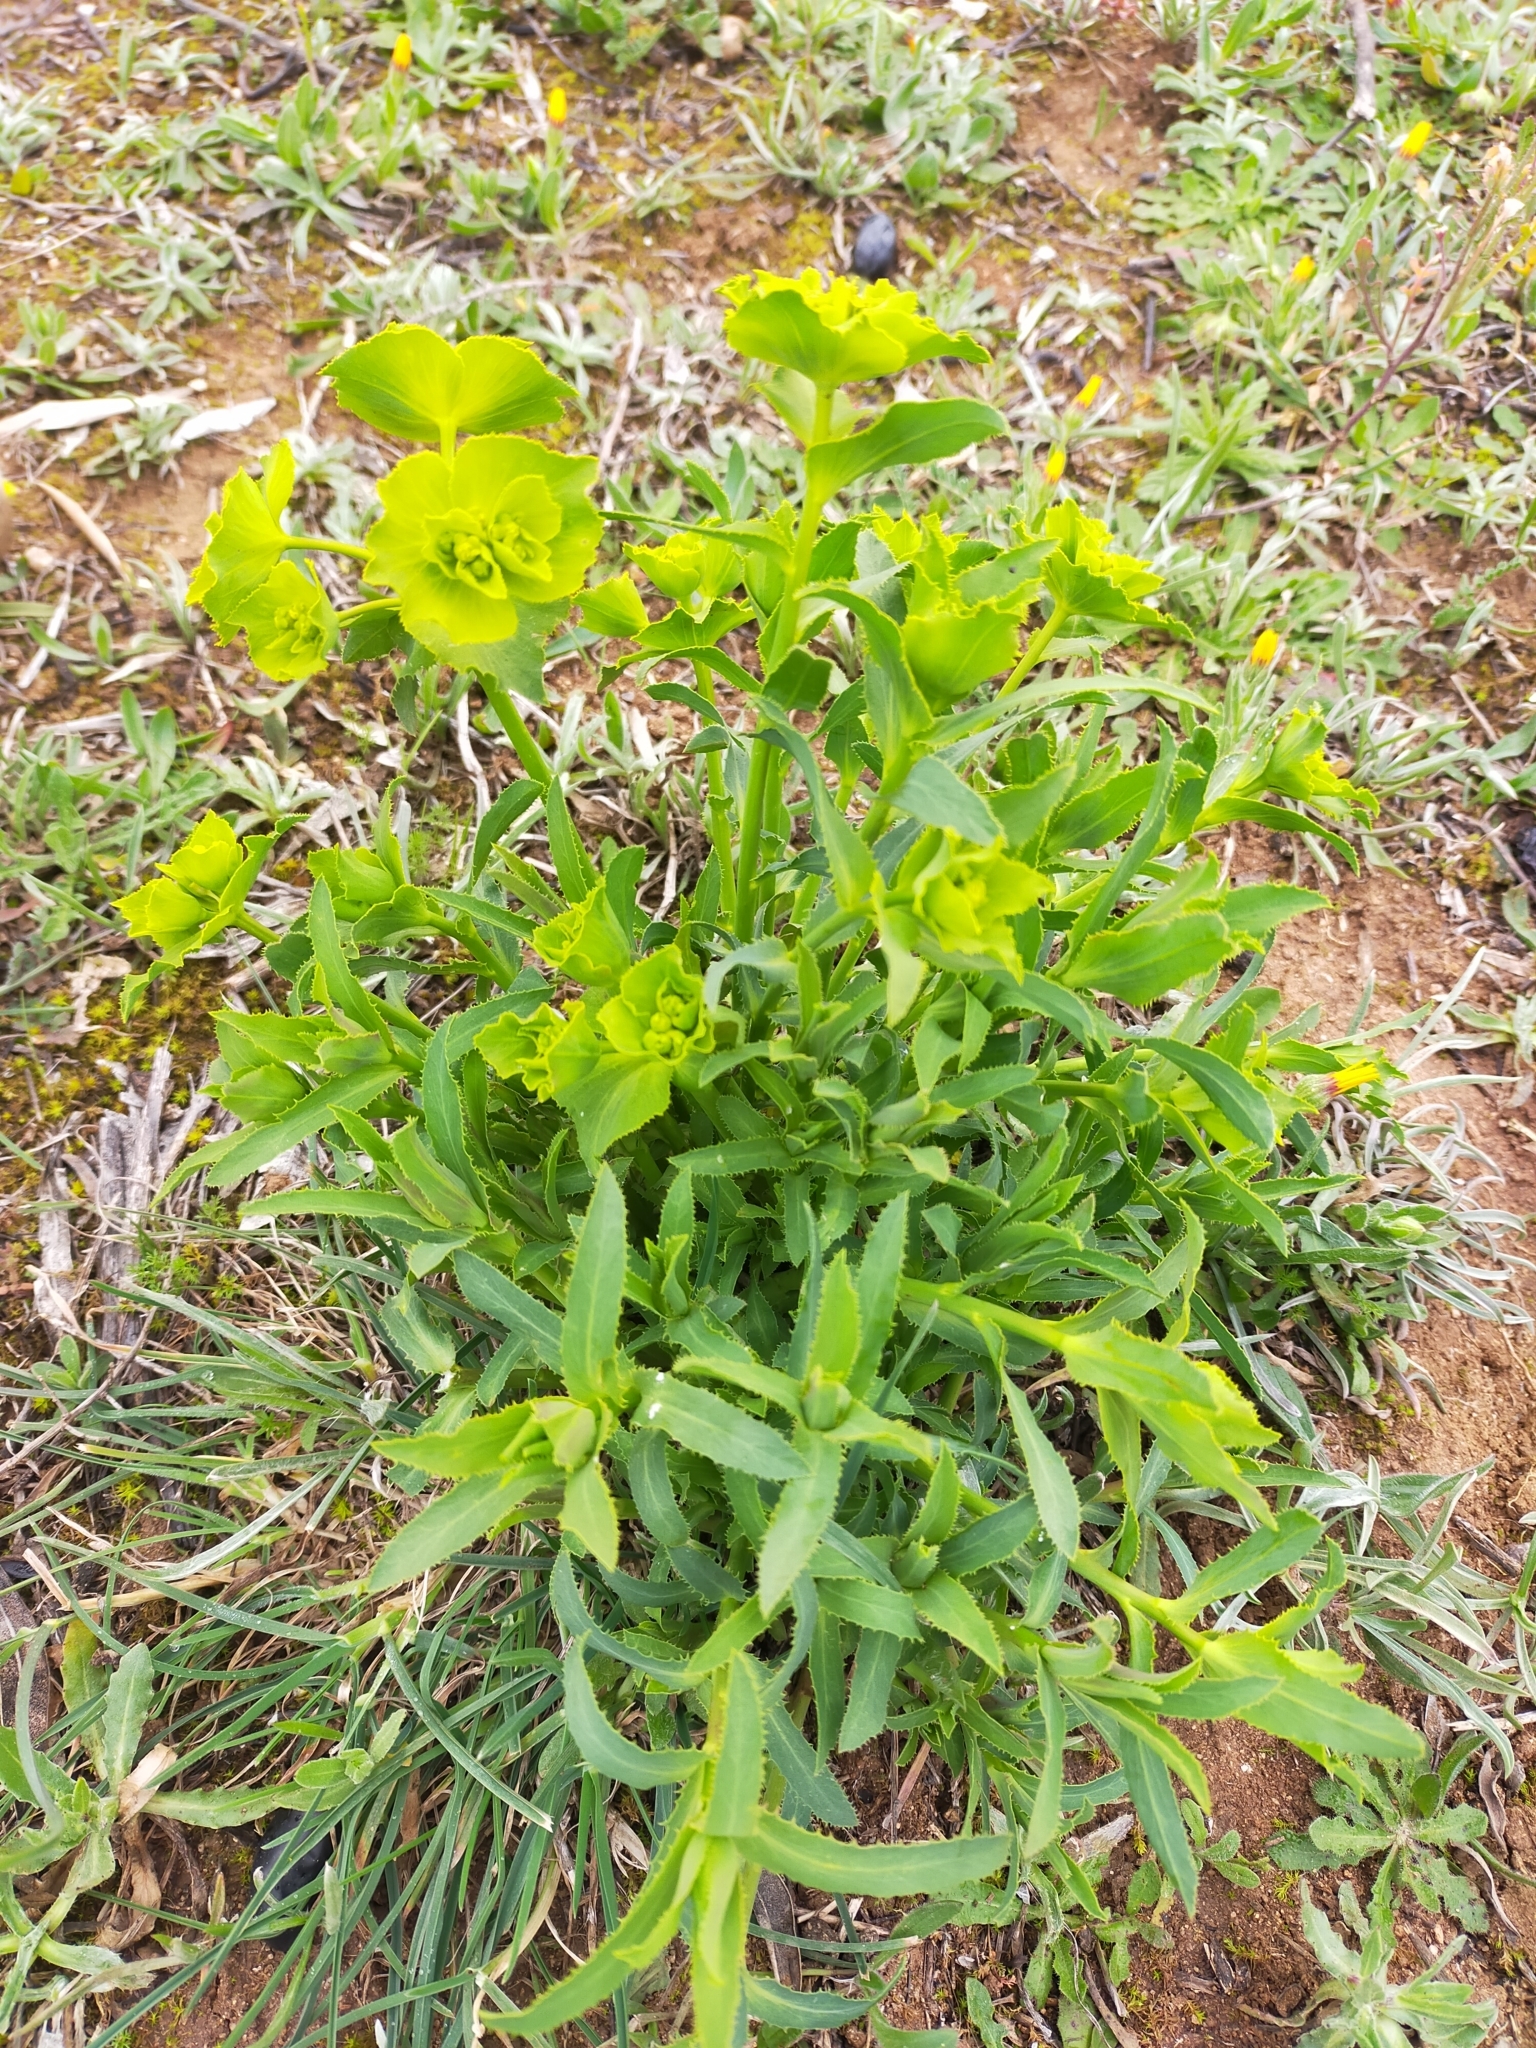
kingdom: Plantae
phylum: Tracheophyta
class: Magnoliopsida
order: Malpighiales
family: Euphorbiaceae
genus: Euphorbia
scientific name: Euphorbia serrata
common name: Serrate spurge
